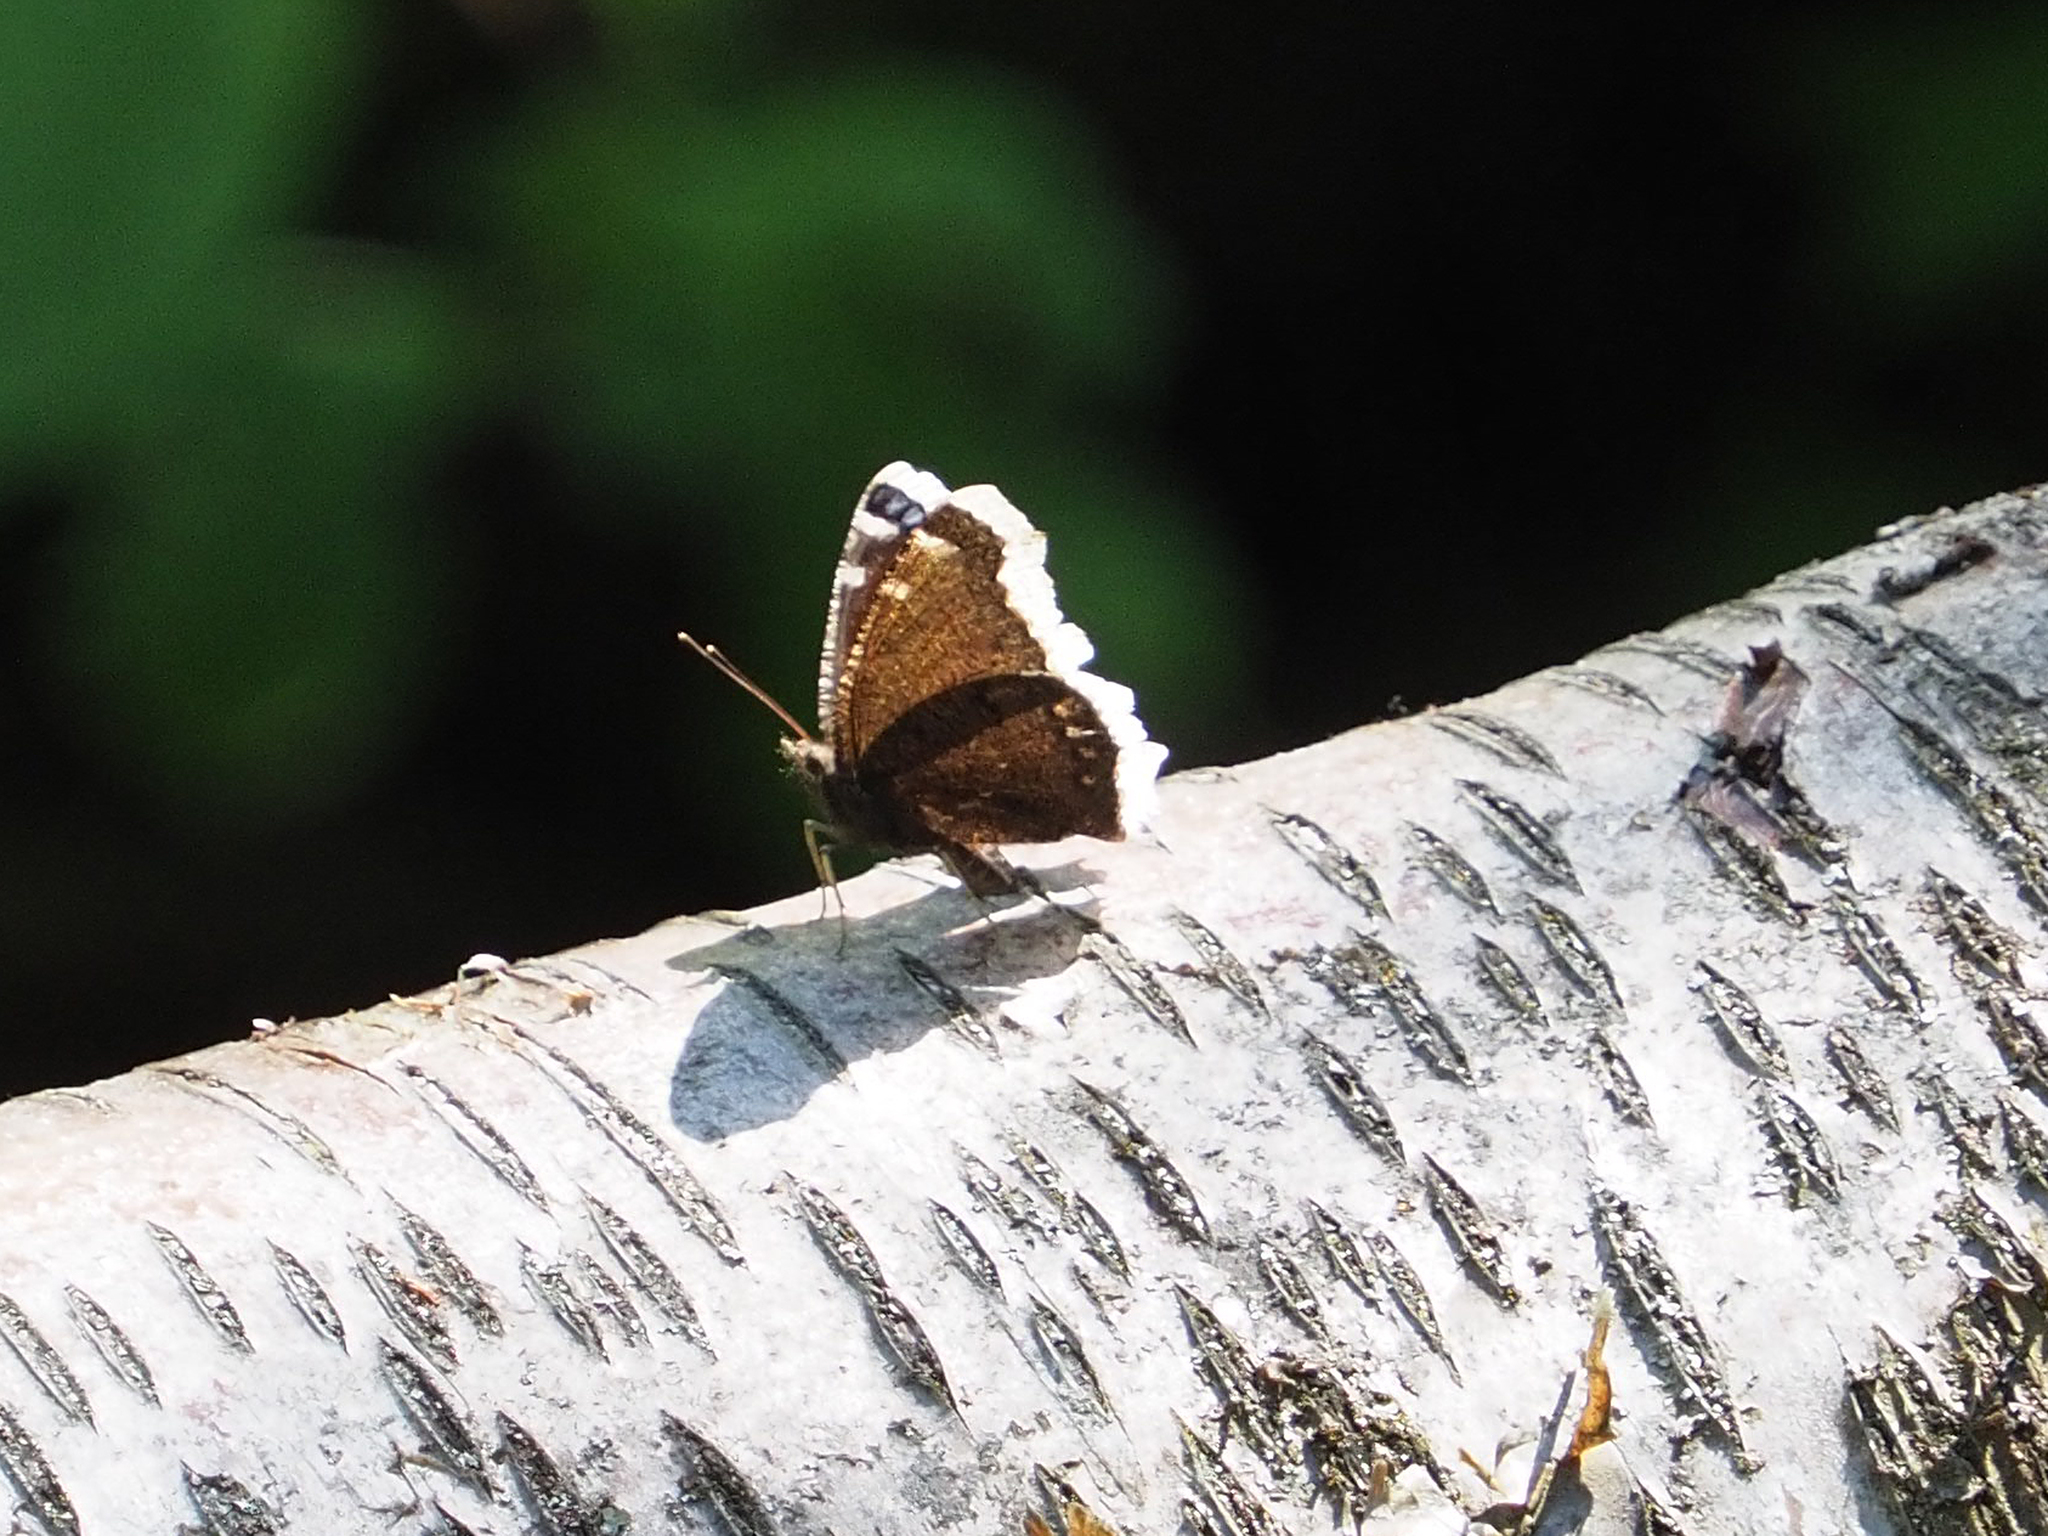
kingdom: Animalia
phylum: Arthropoda
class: Insecta
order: Lepidoptera
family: Nymphalidae
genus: Nymphalis
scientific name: Nymphalis antiopa
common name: Camberwell beauty
